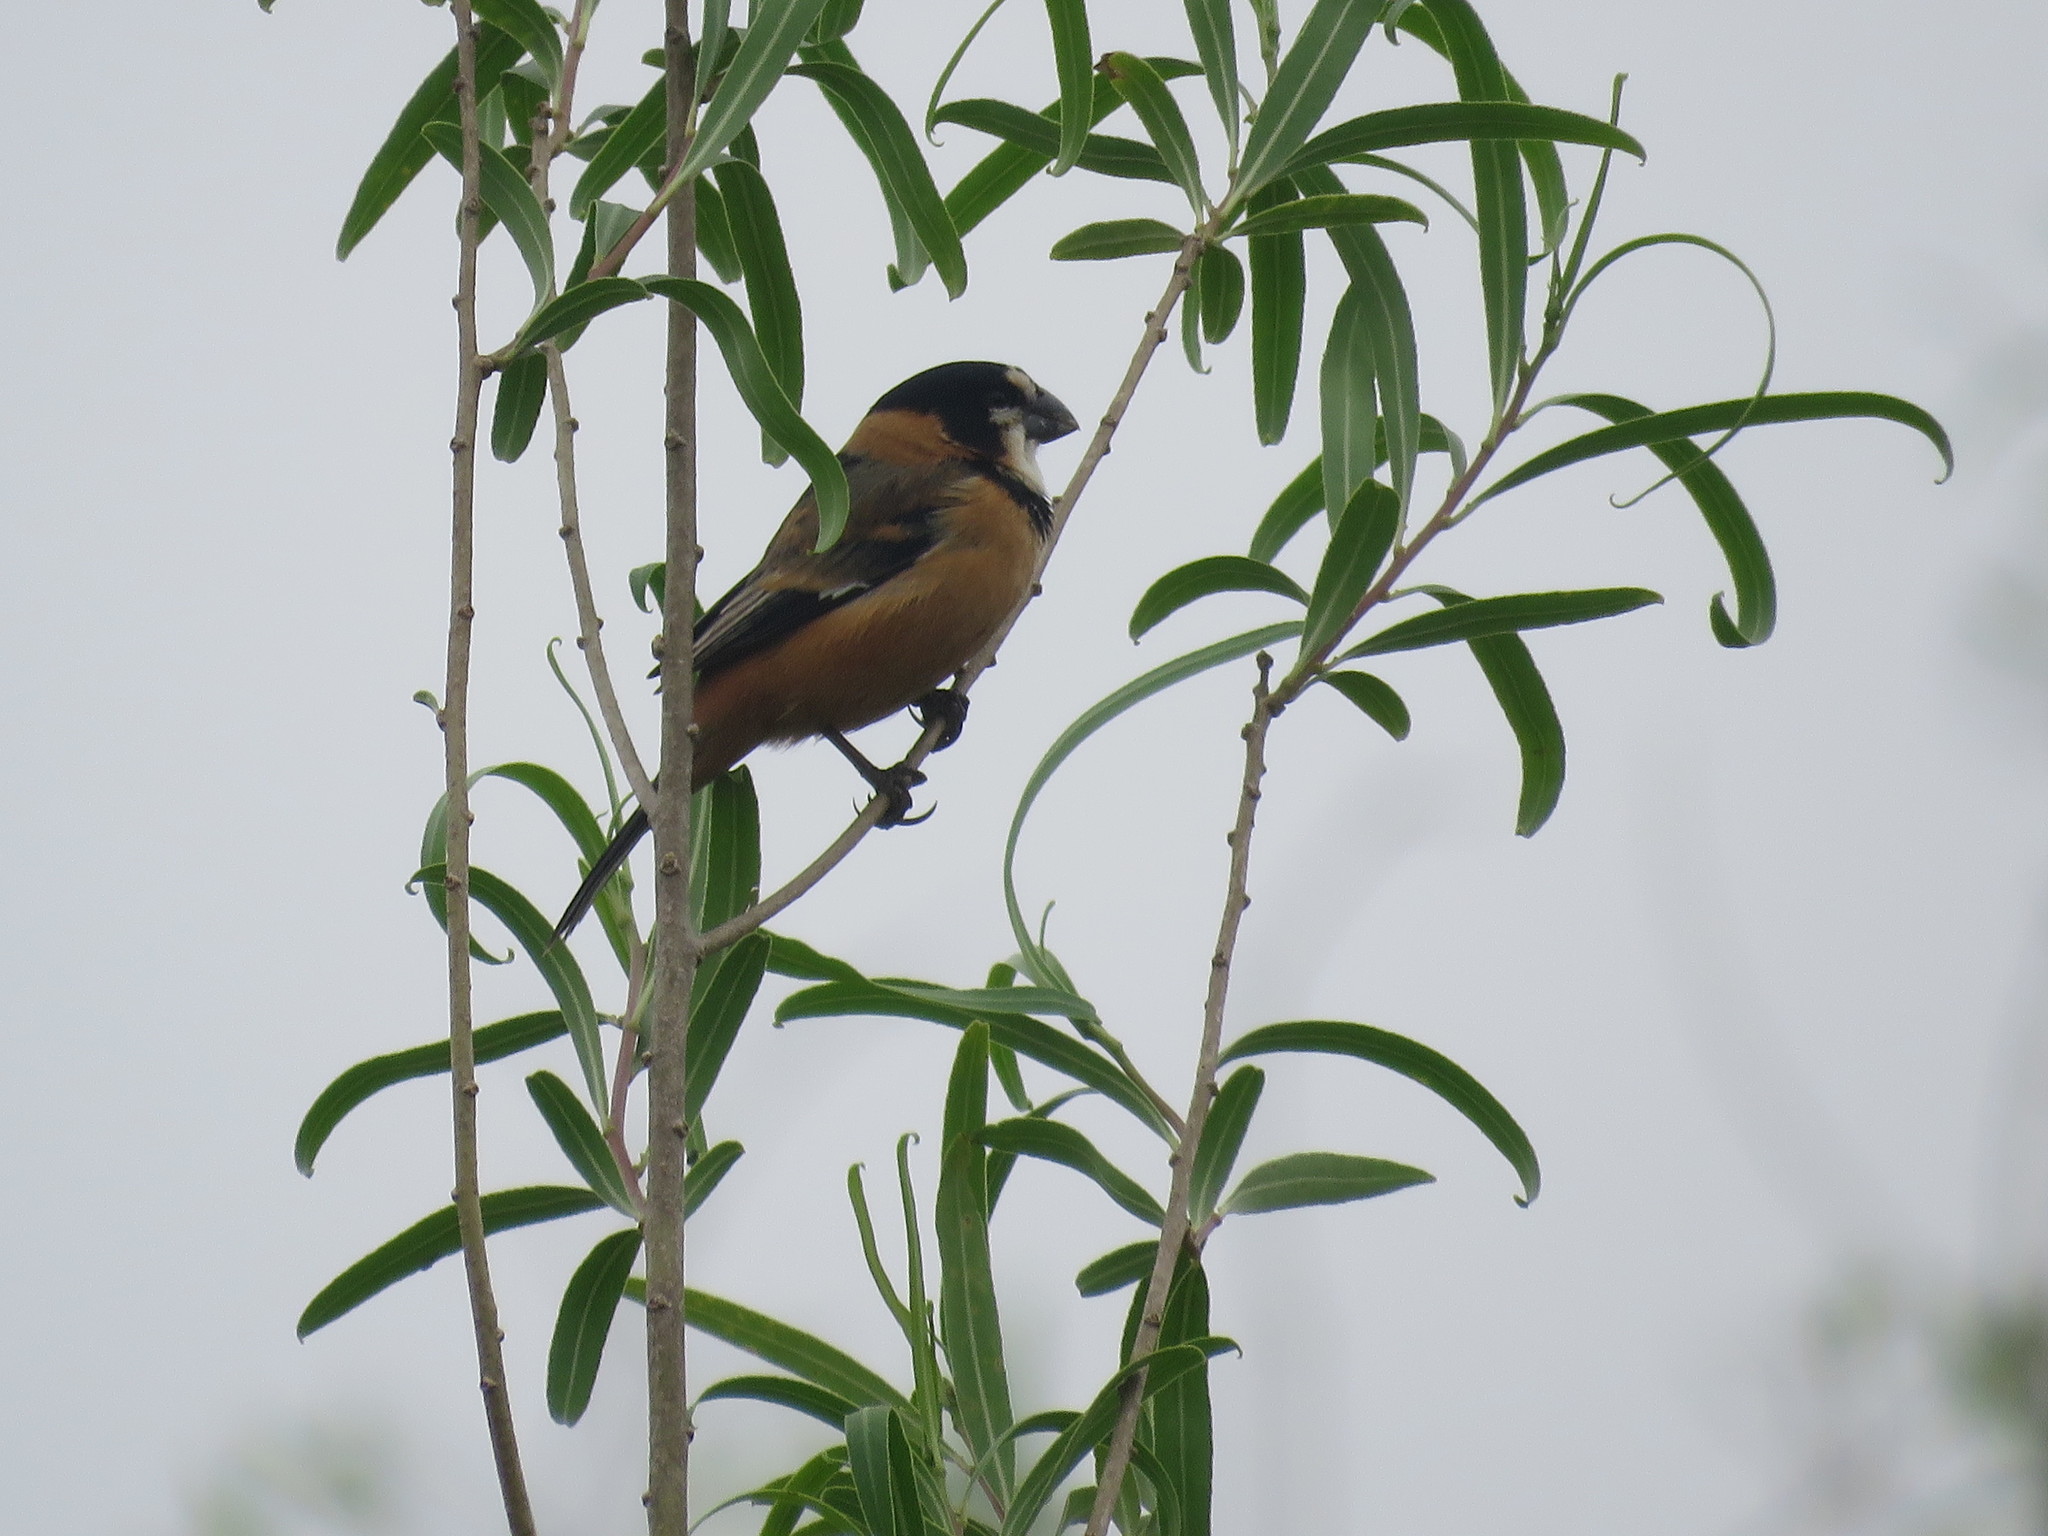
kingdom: Animalia
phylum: Chordata
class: Aves
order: Passeriformes
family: Thraupidae
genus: Sporophila
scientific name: Sporophila collaris
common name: Rusty-collared seedeater
